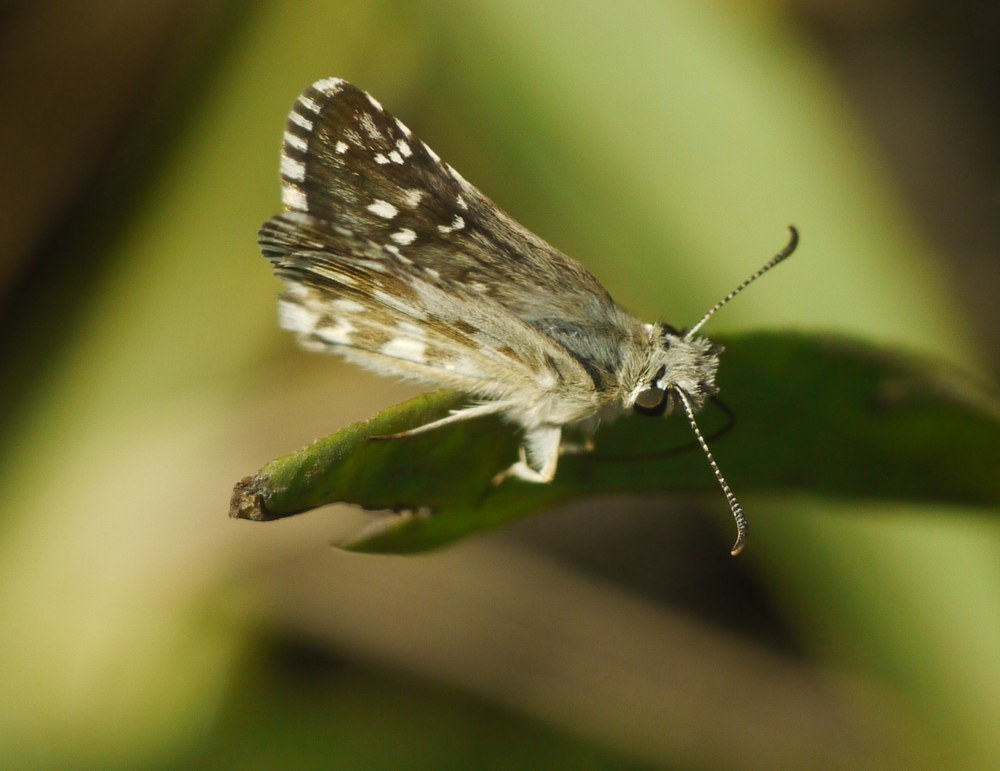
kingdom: Animalia
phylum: Arthropoda
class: Insecta
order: Lepidoptera
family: Hesperiidae
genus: Pyrgus
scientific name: Pyrgus armoricanus
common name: Oberthür's grizzled skipper
